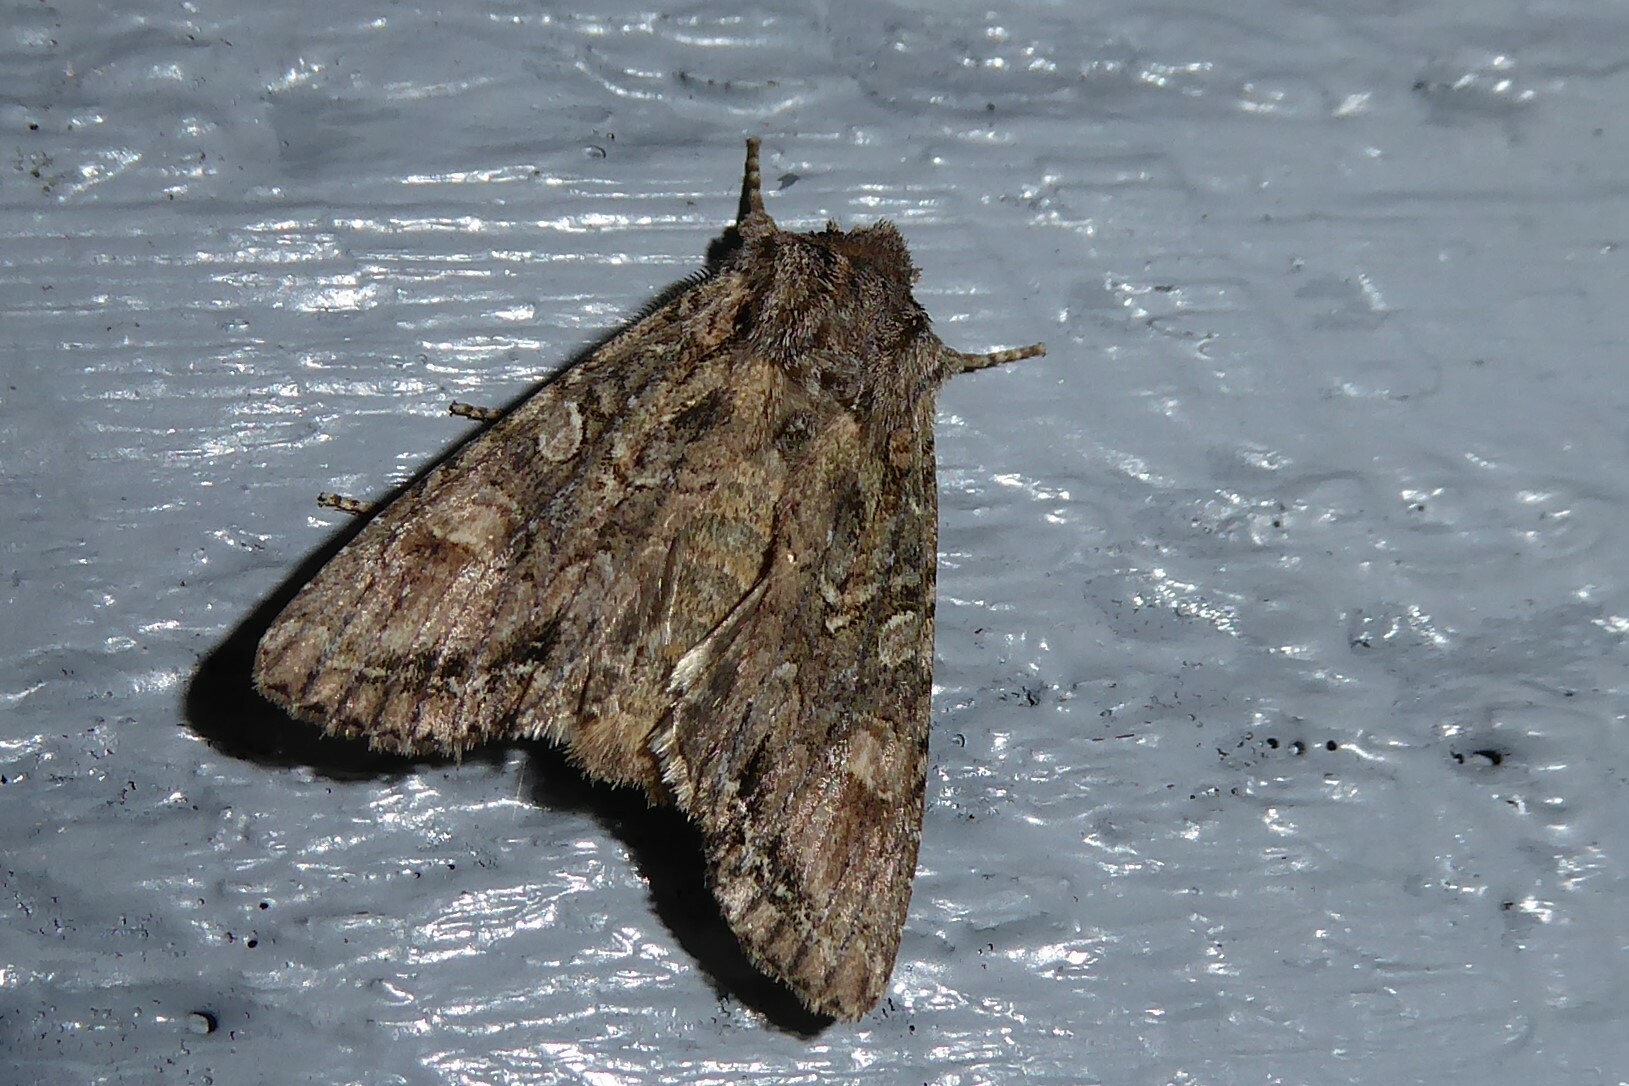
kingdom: Animalia
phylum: Arthropoda
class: Insecta
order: Lepidoptera
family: Noctuidae
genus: Ichneutica
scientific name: Ichneutica mutans
